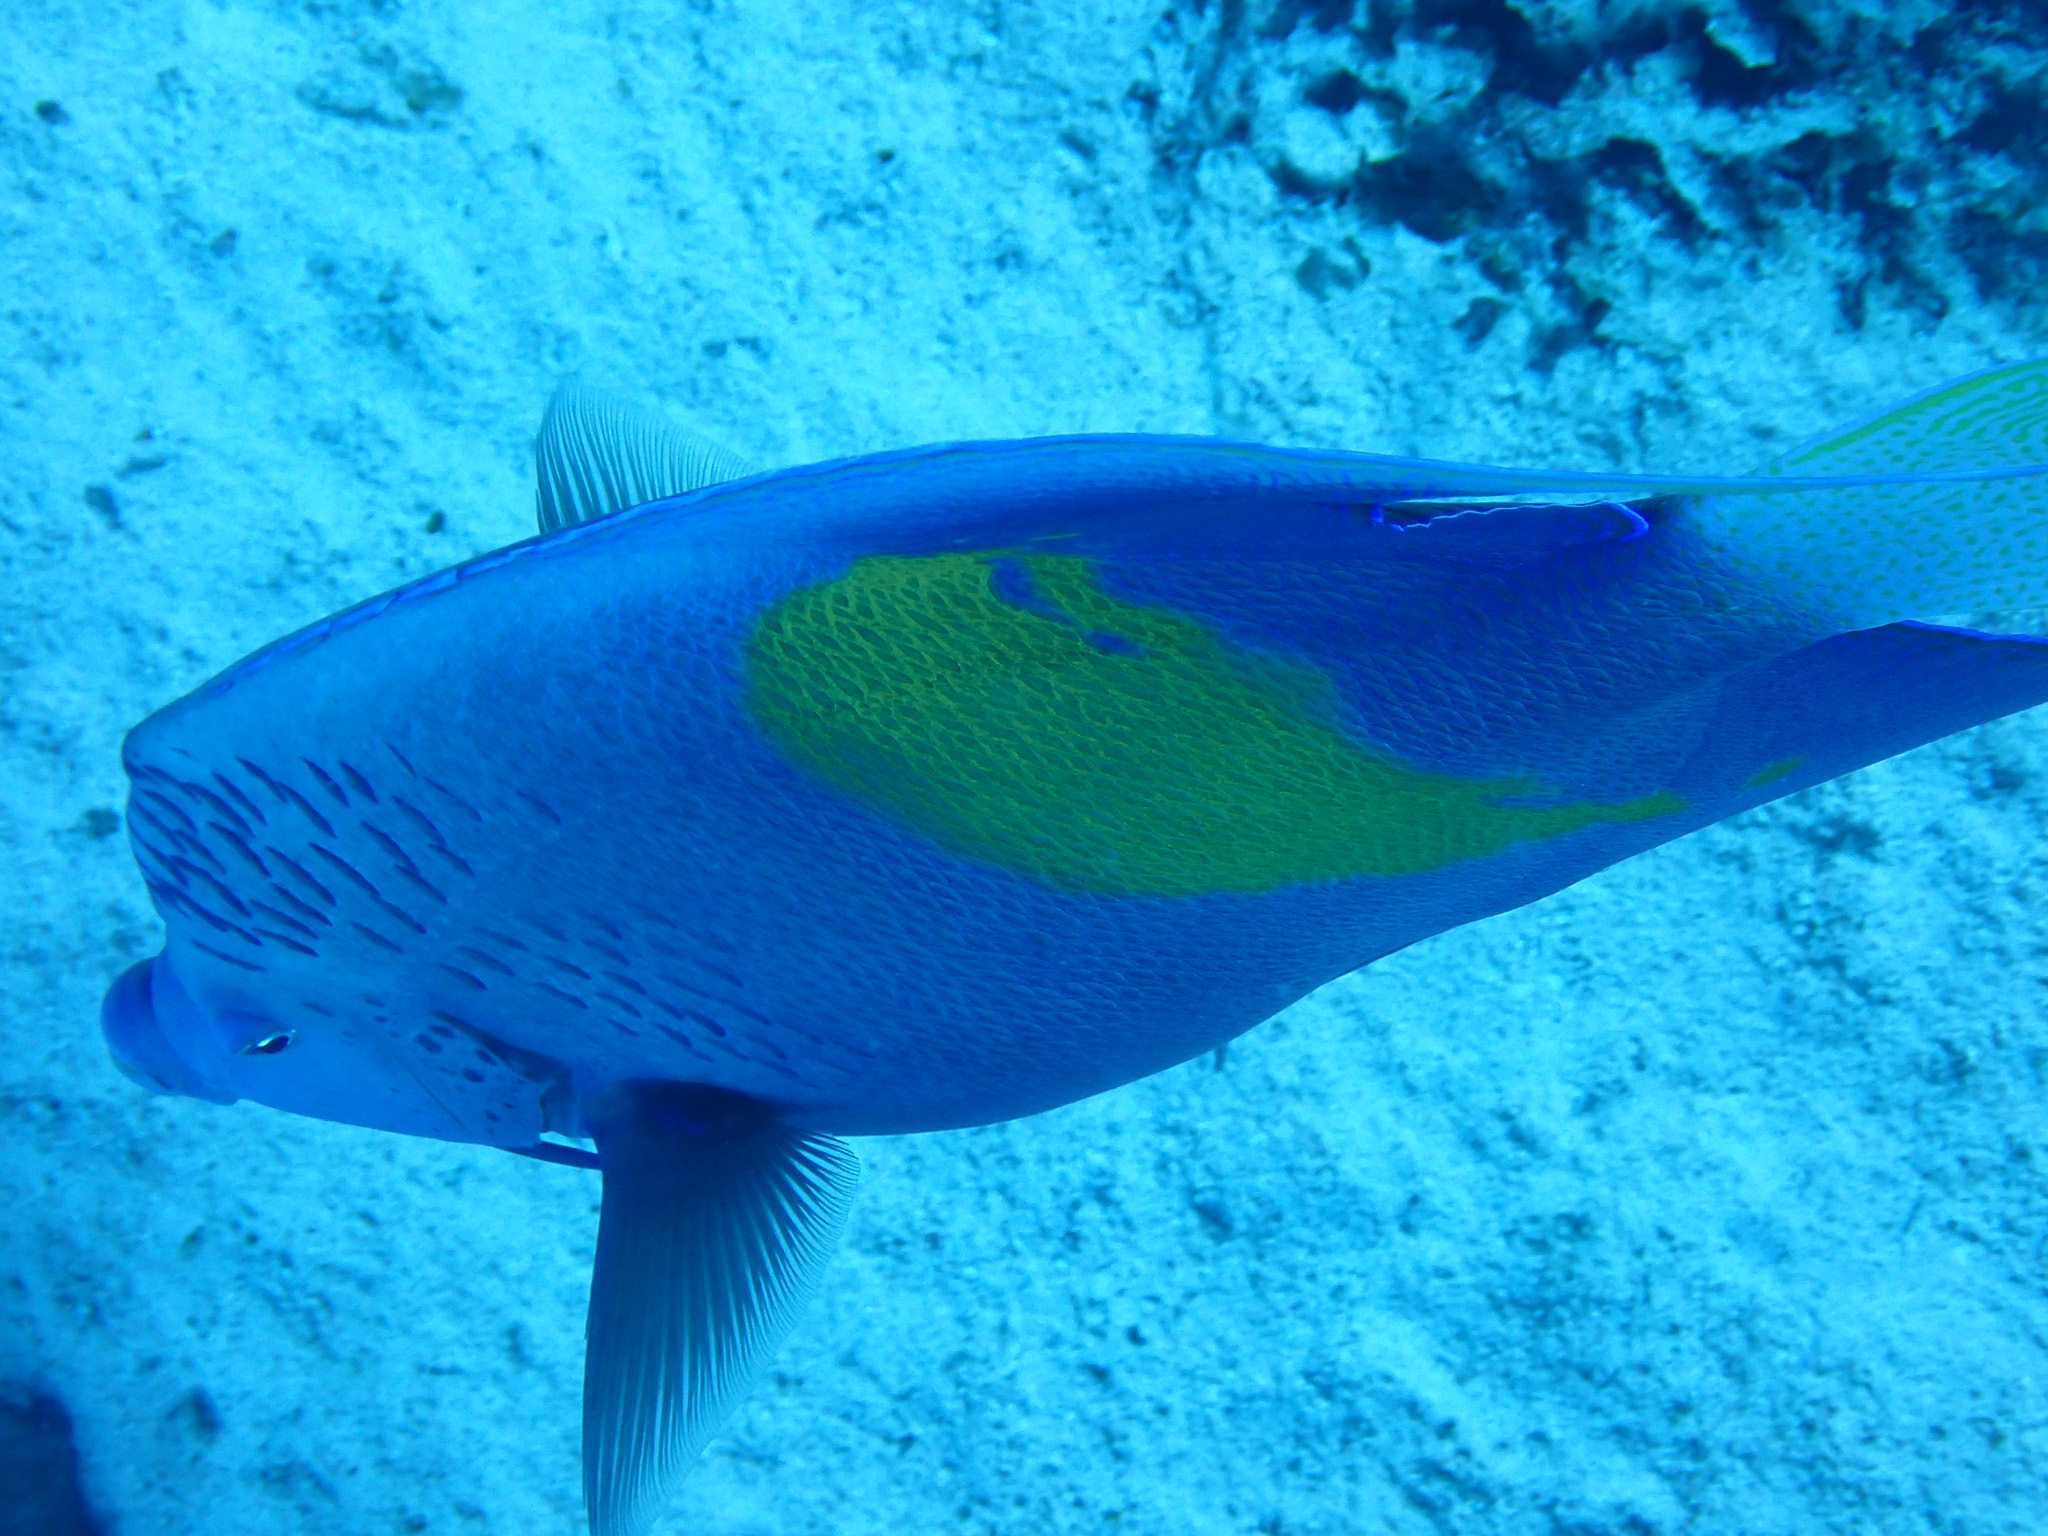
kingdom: Animalia
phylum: Chordata
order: Perciformes
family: Pomacanthidae
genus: Pomacanthus
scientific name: Pomacanthus maculosus
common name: Yellowbar angelfish
